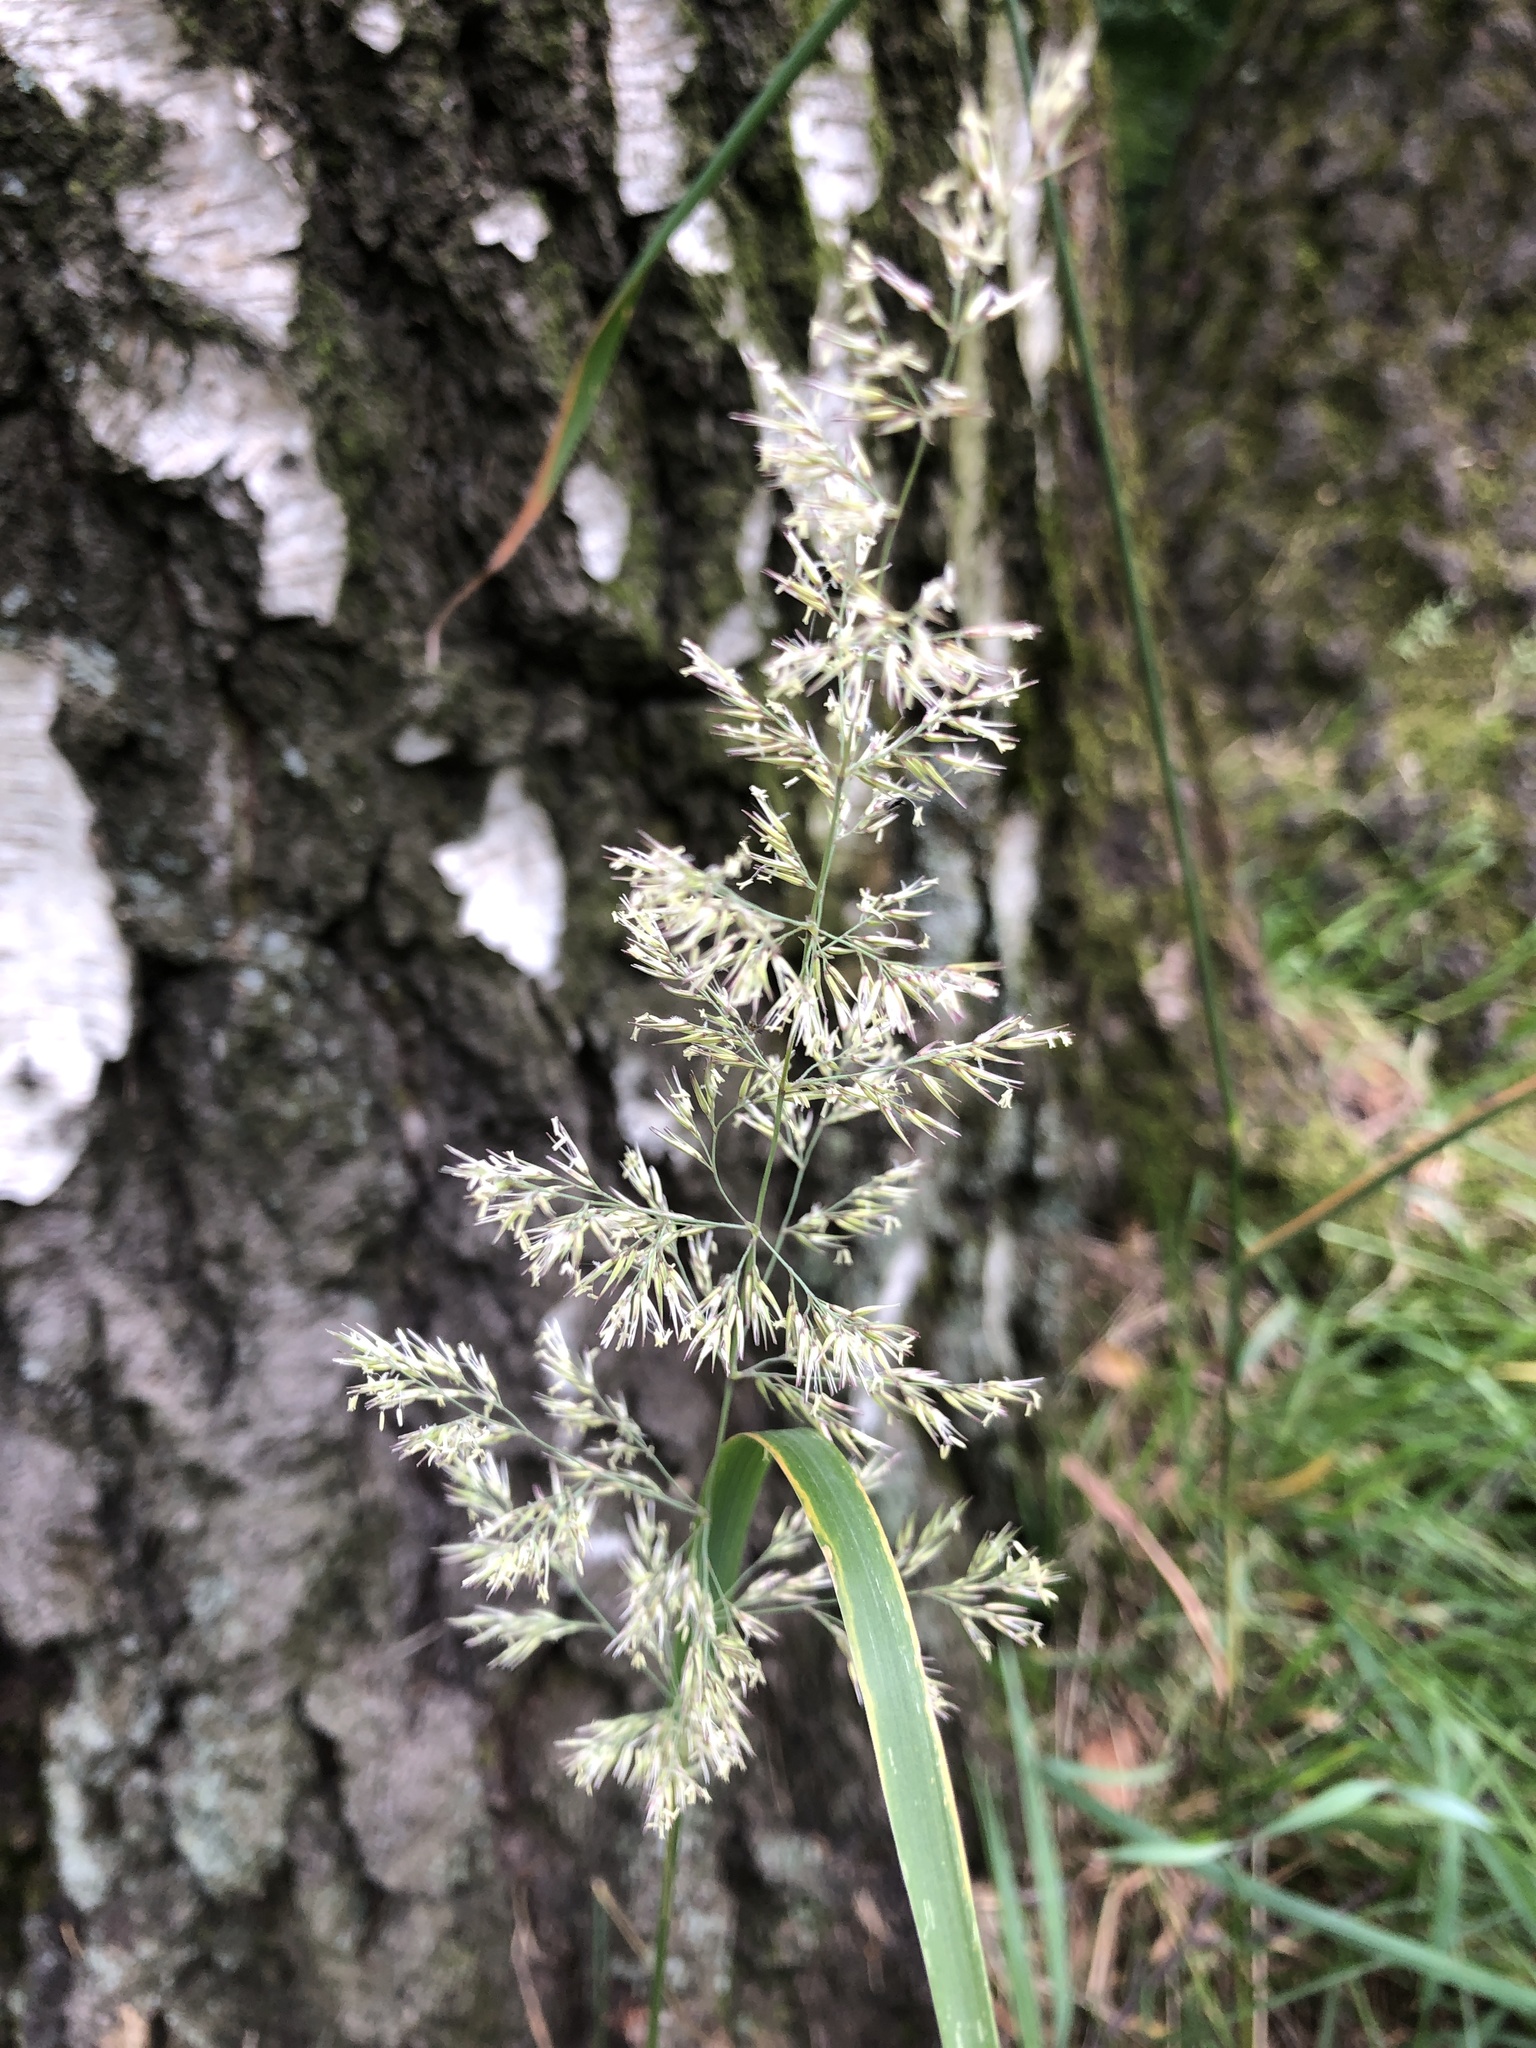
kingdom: Plantae
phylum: Tracheophyta
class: Liliopsida
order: Poales
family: Poaceae
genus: Calamagrostis
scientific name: Calamagrostis epigejos
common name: Wood small-reed
